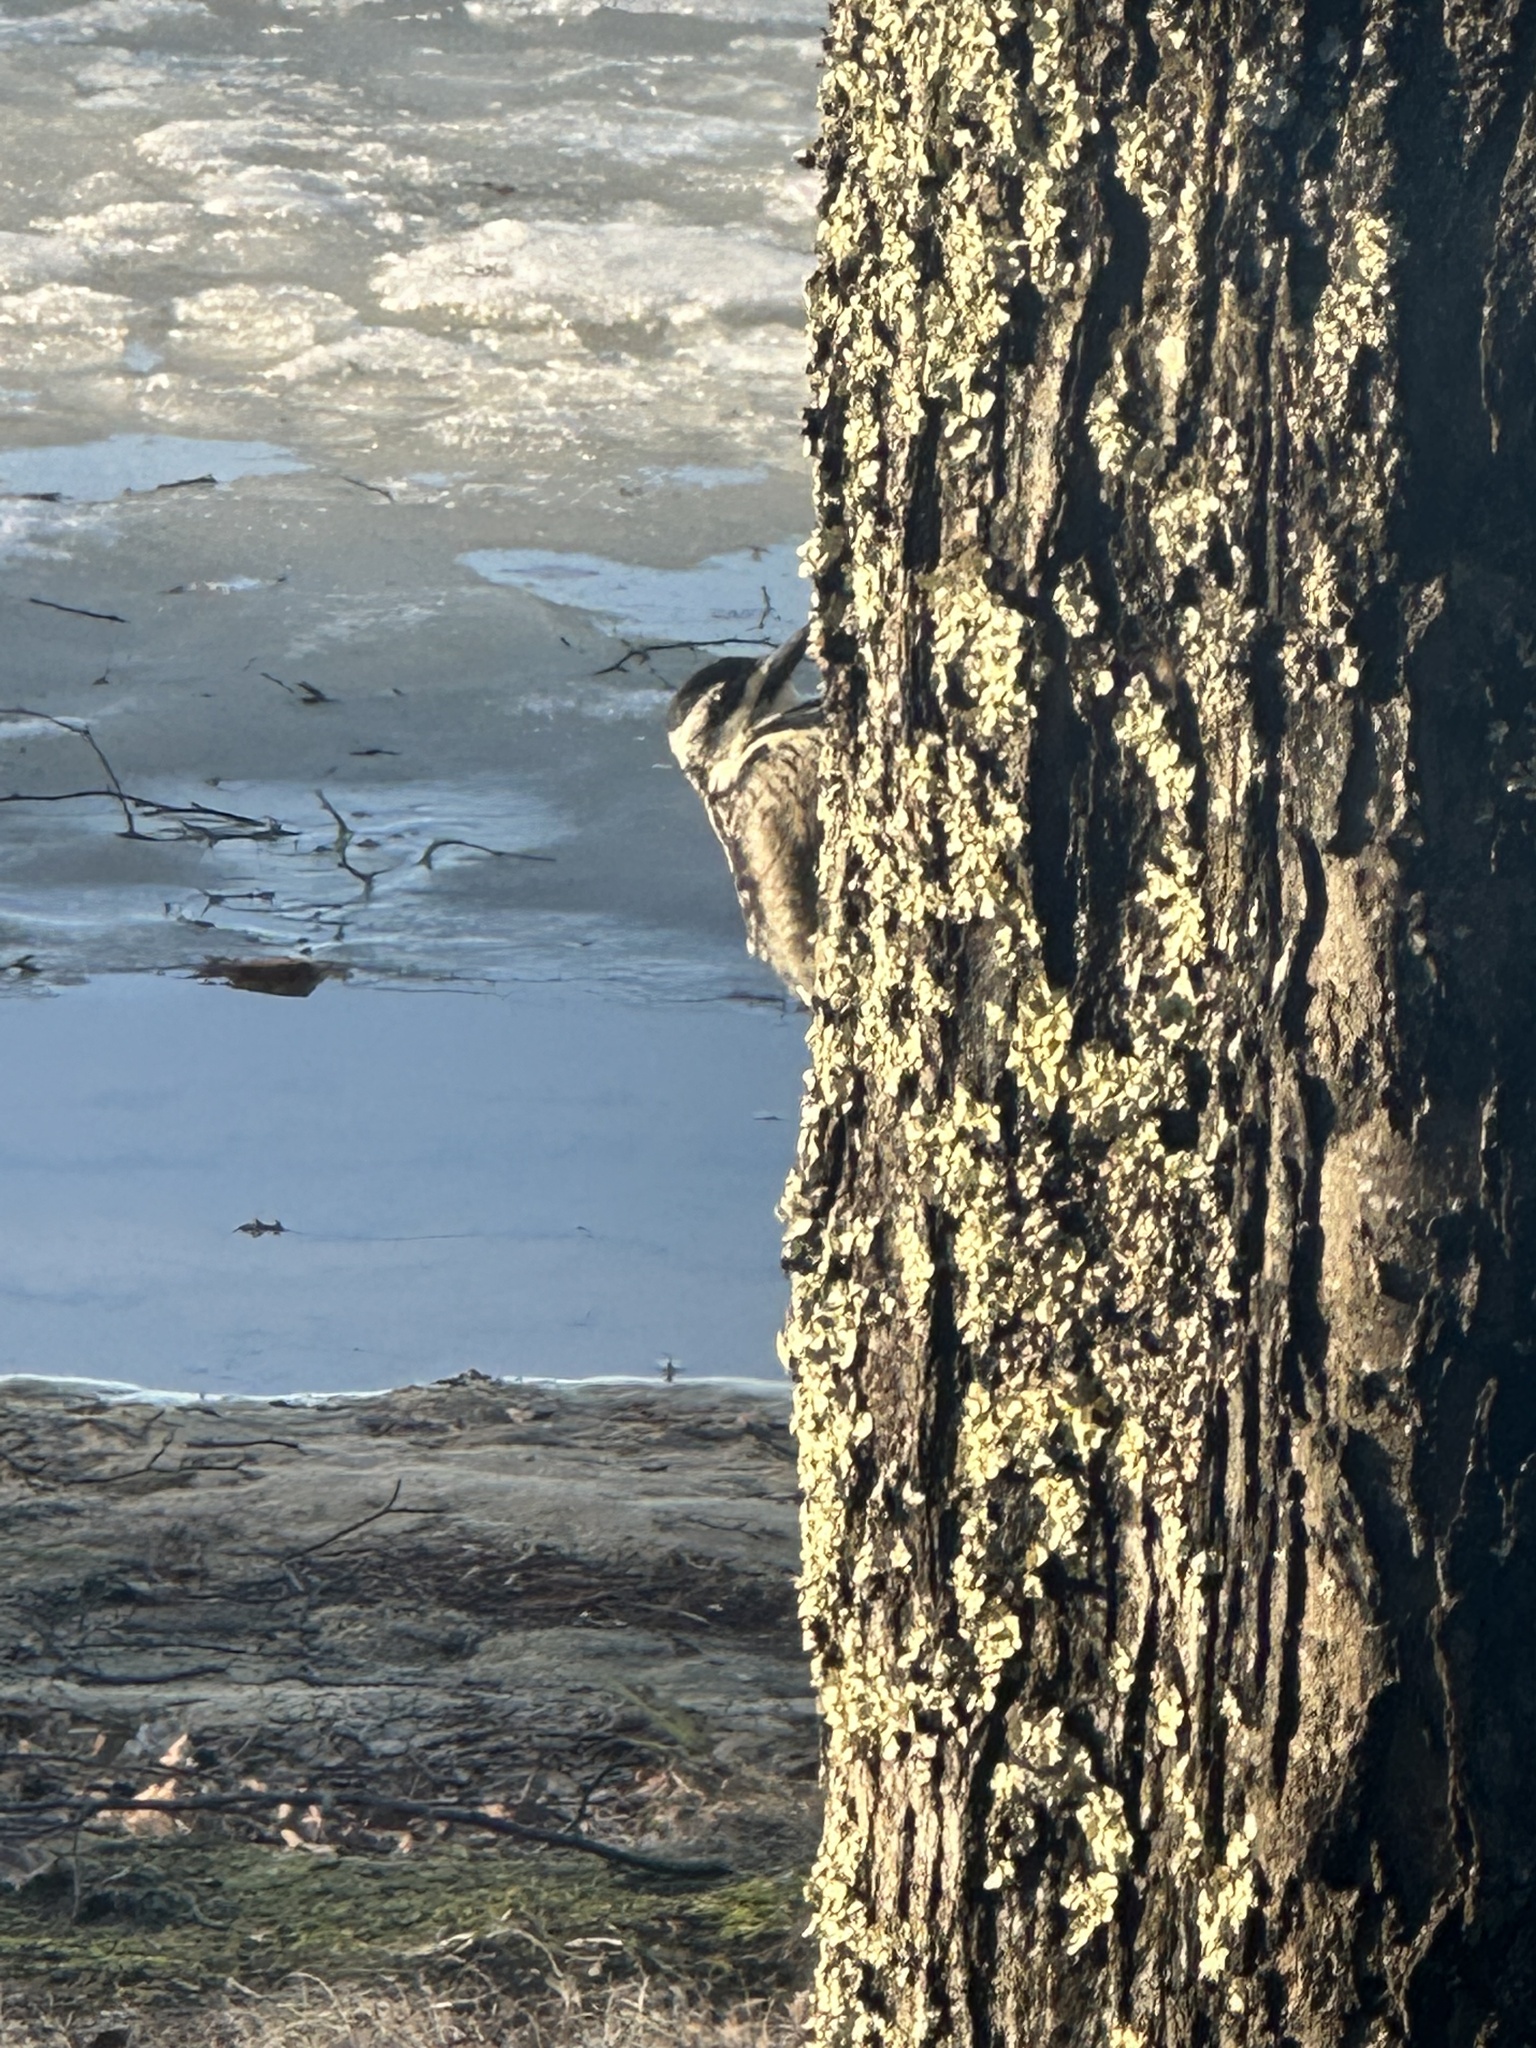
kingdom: Animalia
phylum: Chordata
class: Aves
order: Piciformes
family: Picidae
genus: Sphyrapicus
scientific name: Sphyrapicus varius
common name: Yellow-bellied sapsucker
